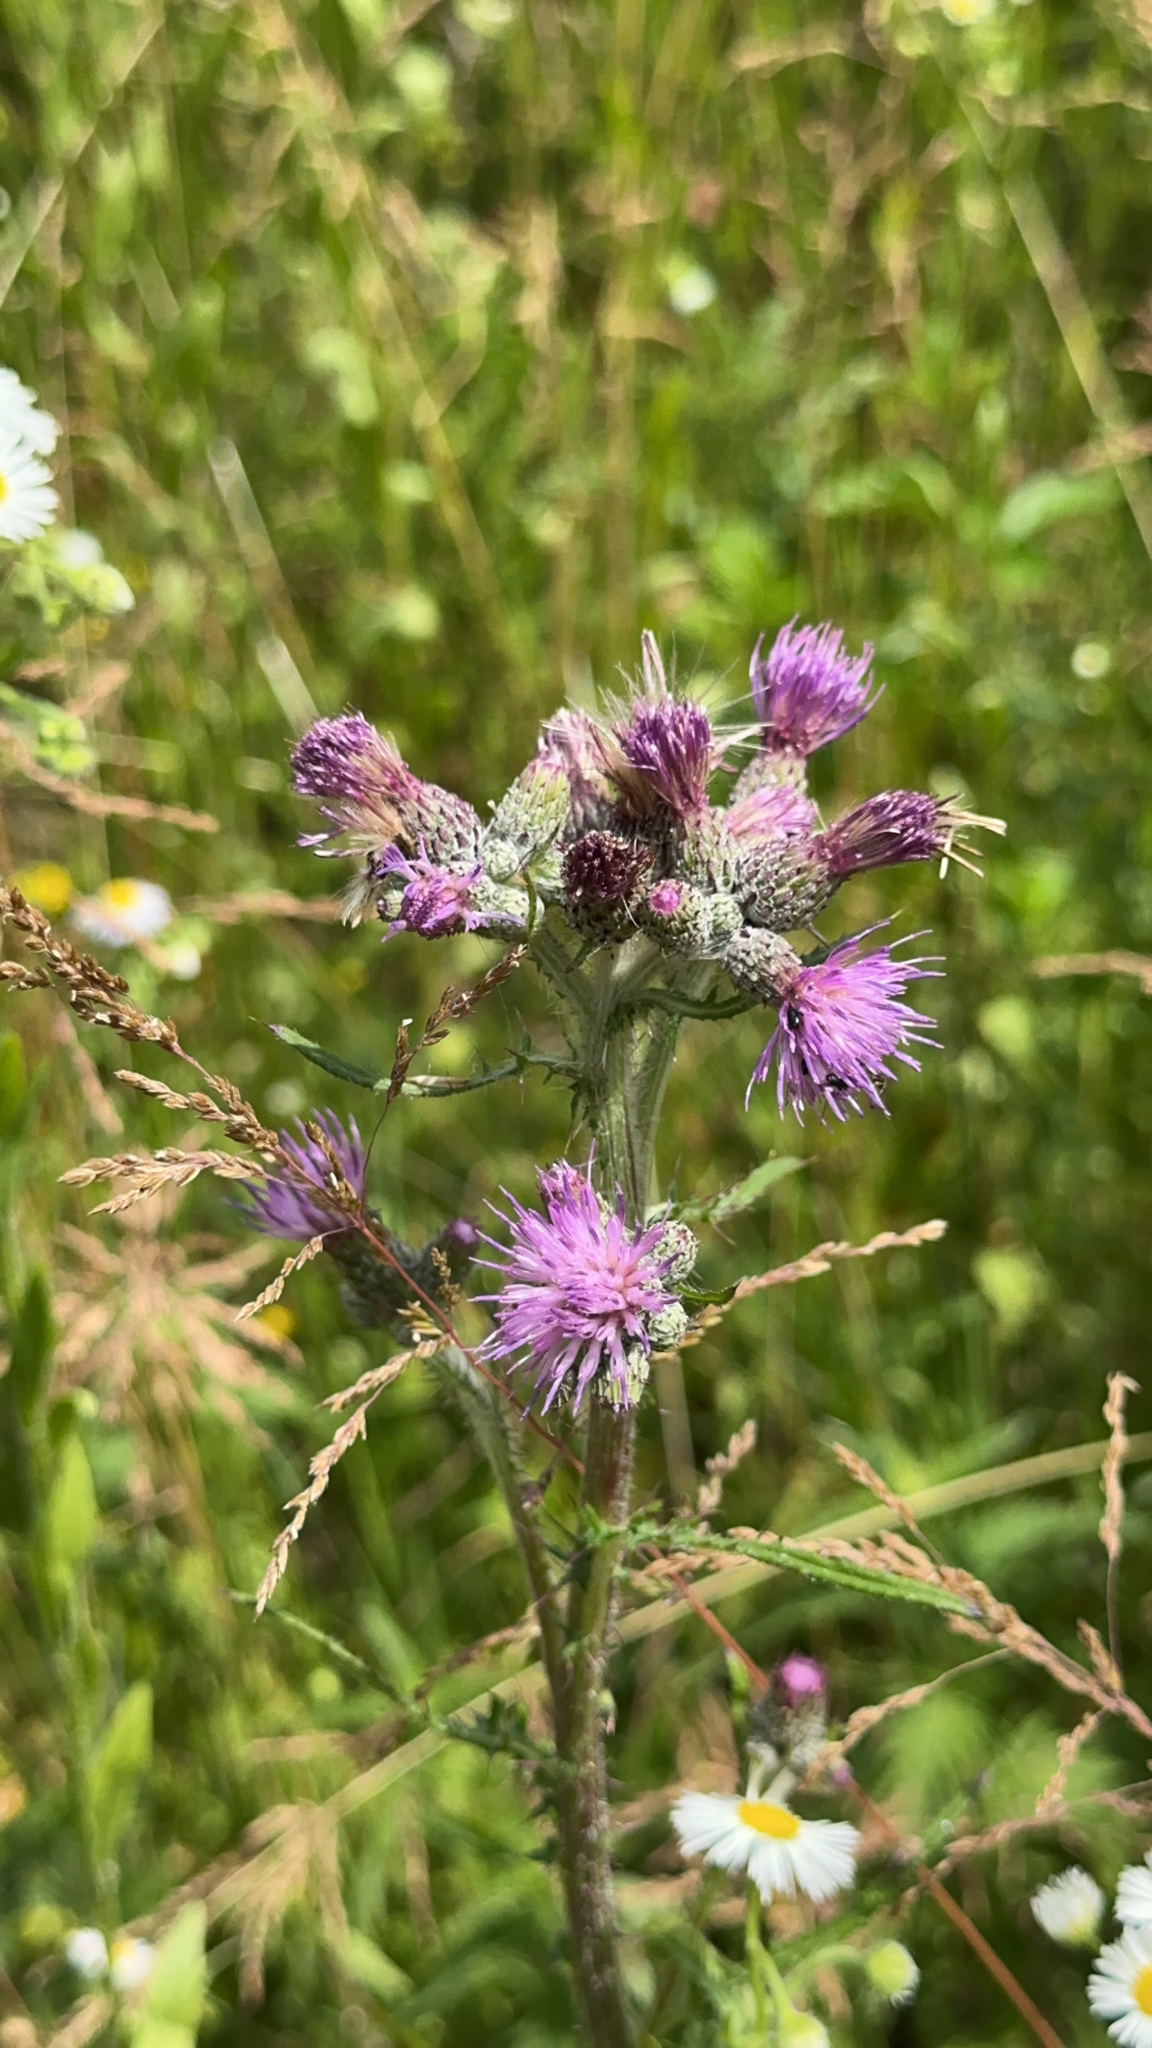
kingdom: Plantae
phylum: Tracheophyta
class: Magnoliopsida
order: Asterales
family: Asteraceae
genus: Cirsium
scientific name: Cirsium palustre
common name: Marsh thistle
